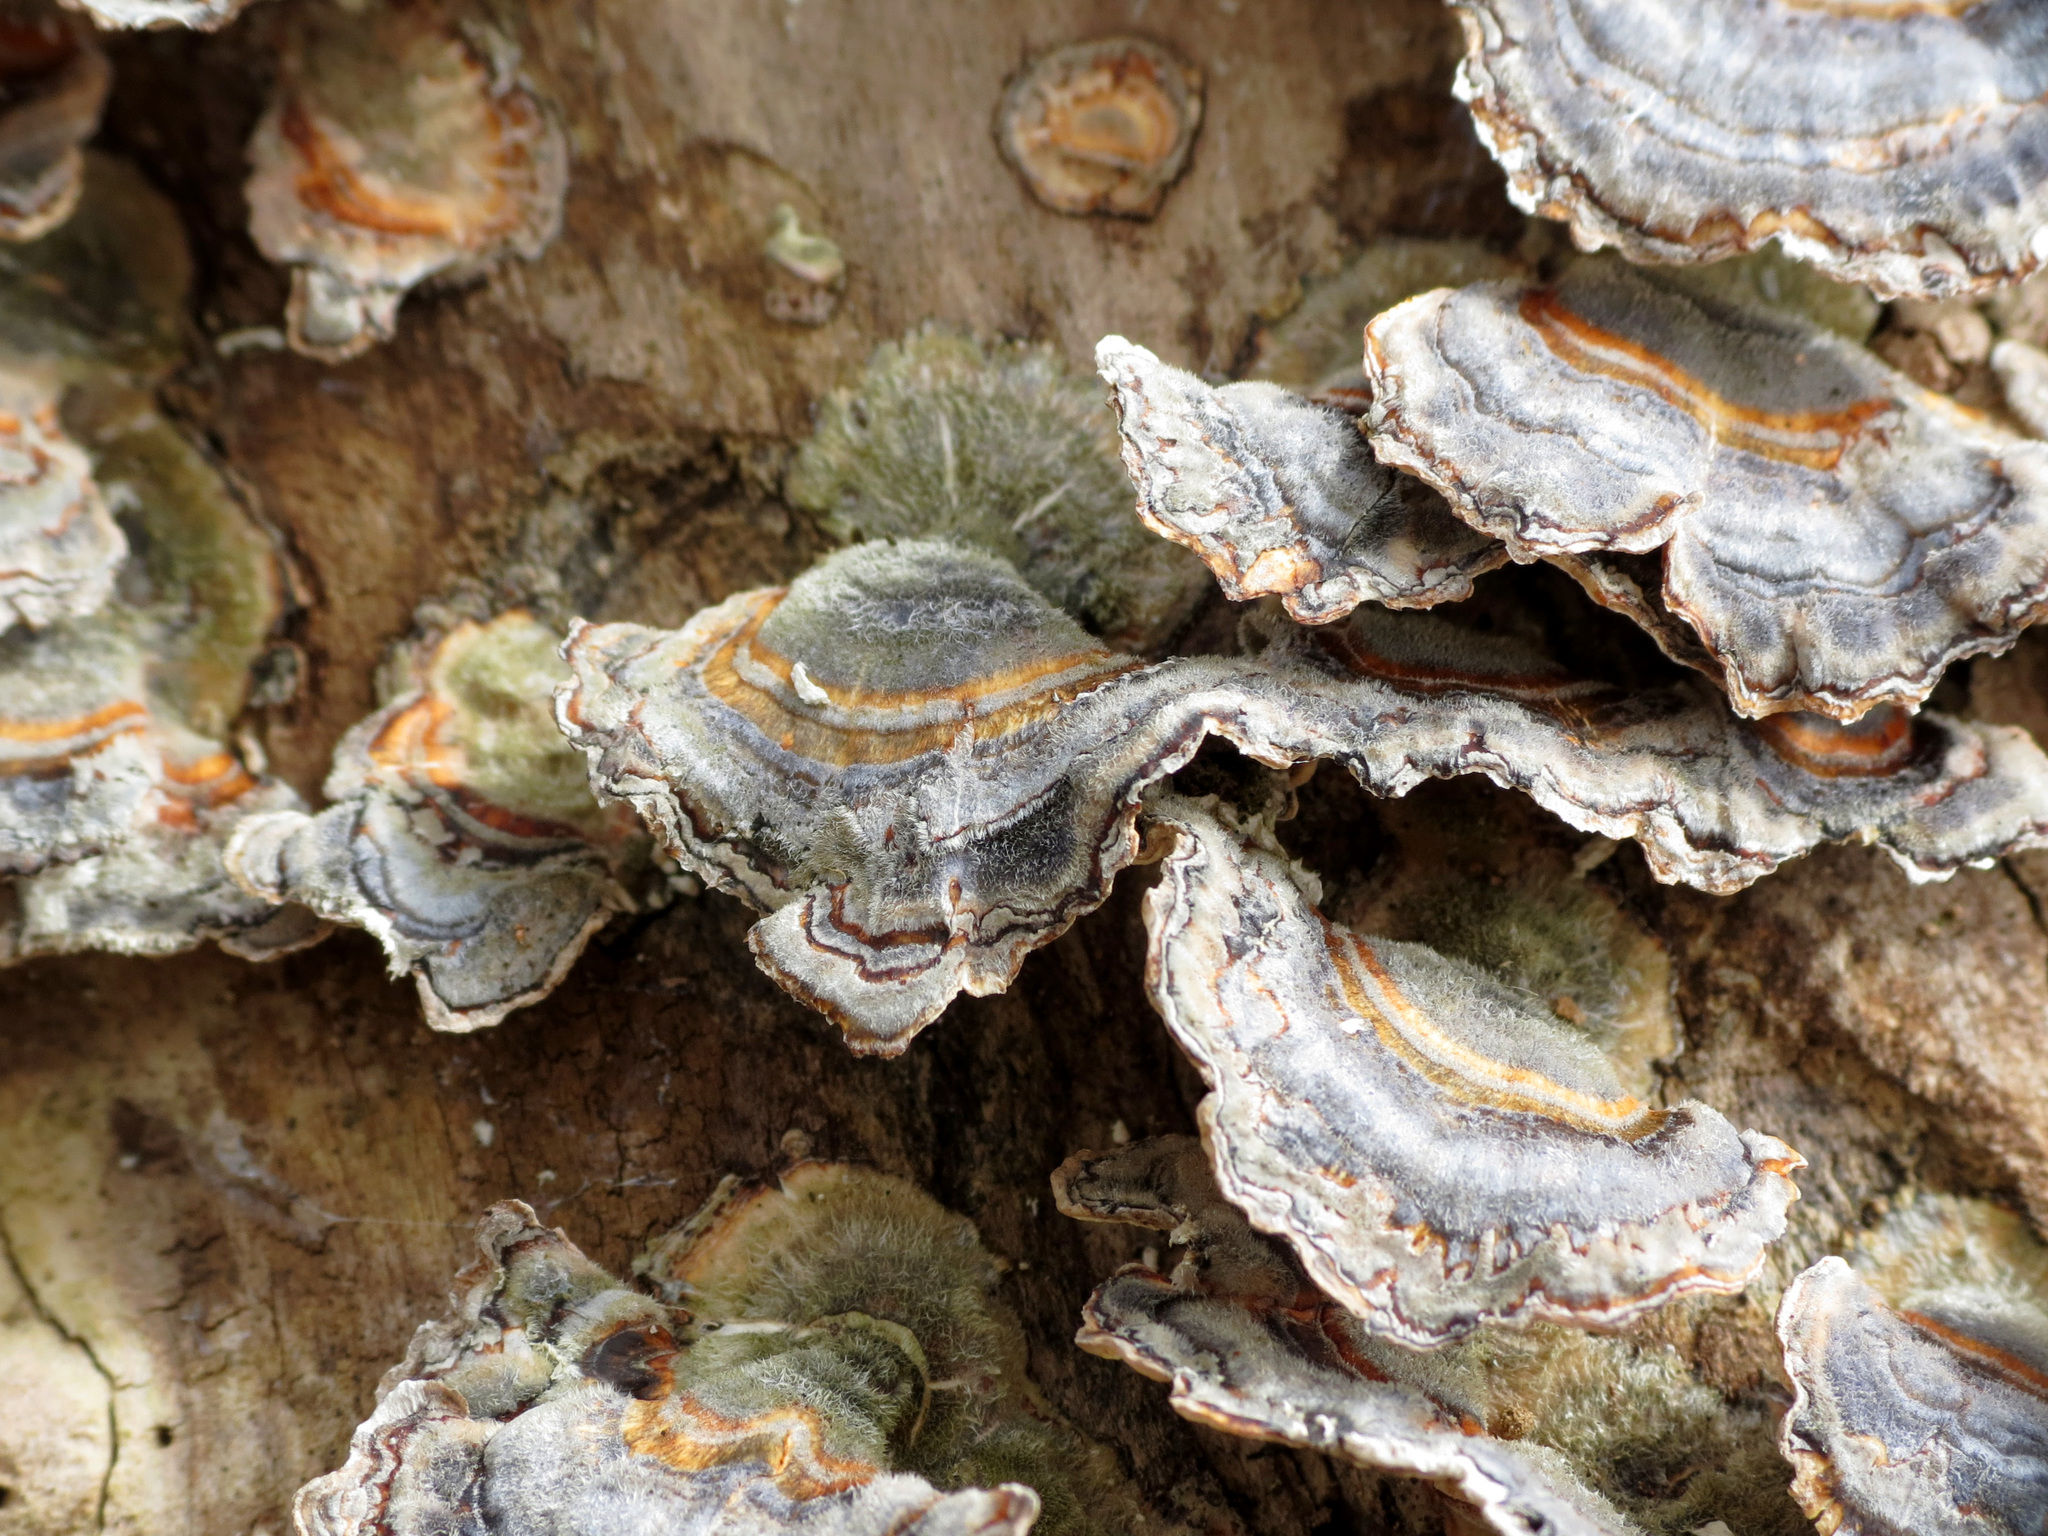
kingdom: Fungi
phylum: Basidiomycota
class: Agaricomycetes
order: Polyporales
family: Polyporaceae
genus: Trametes
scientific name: Trametes versicolor
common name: Turkeytail
